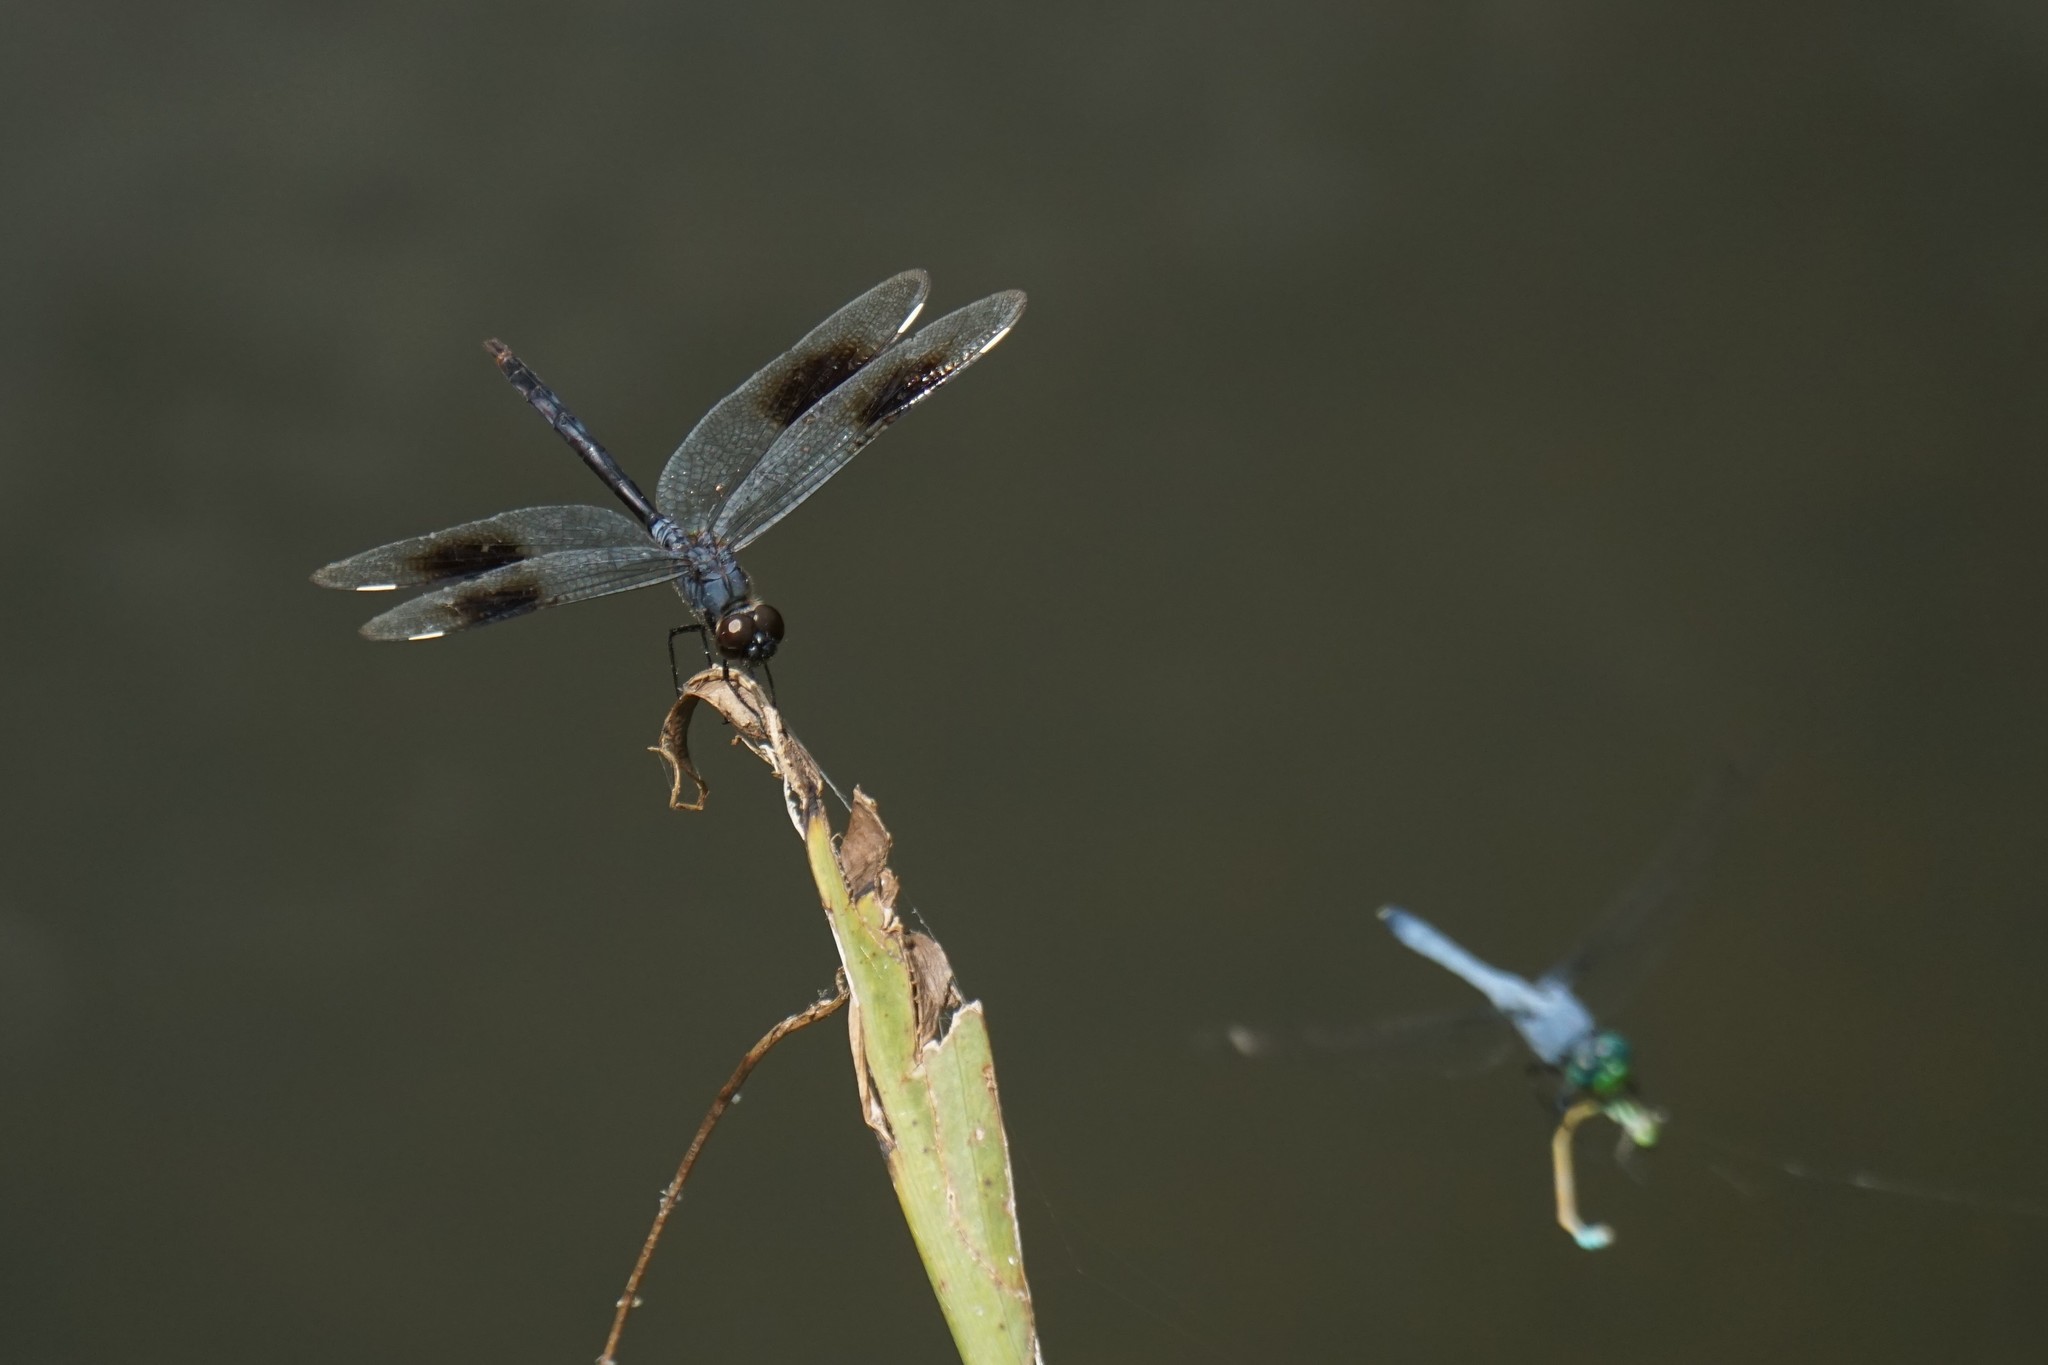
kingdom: Animalia
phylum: Arthropoda
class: Insecta
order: Odonata
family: Libellulidae
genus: Brachymesia
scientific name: Brachymesia gravida
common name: Four-spotted pennant
